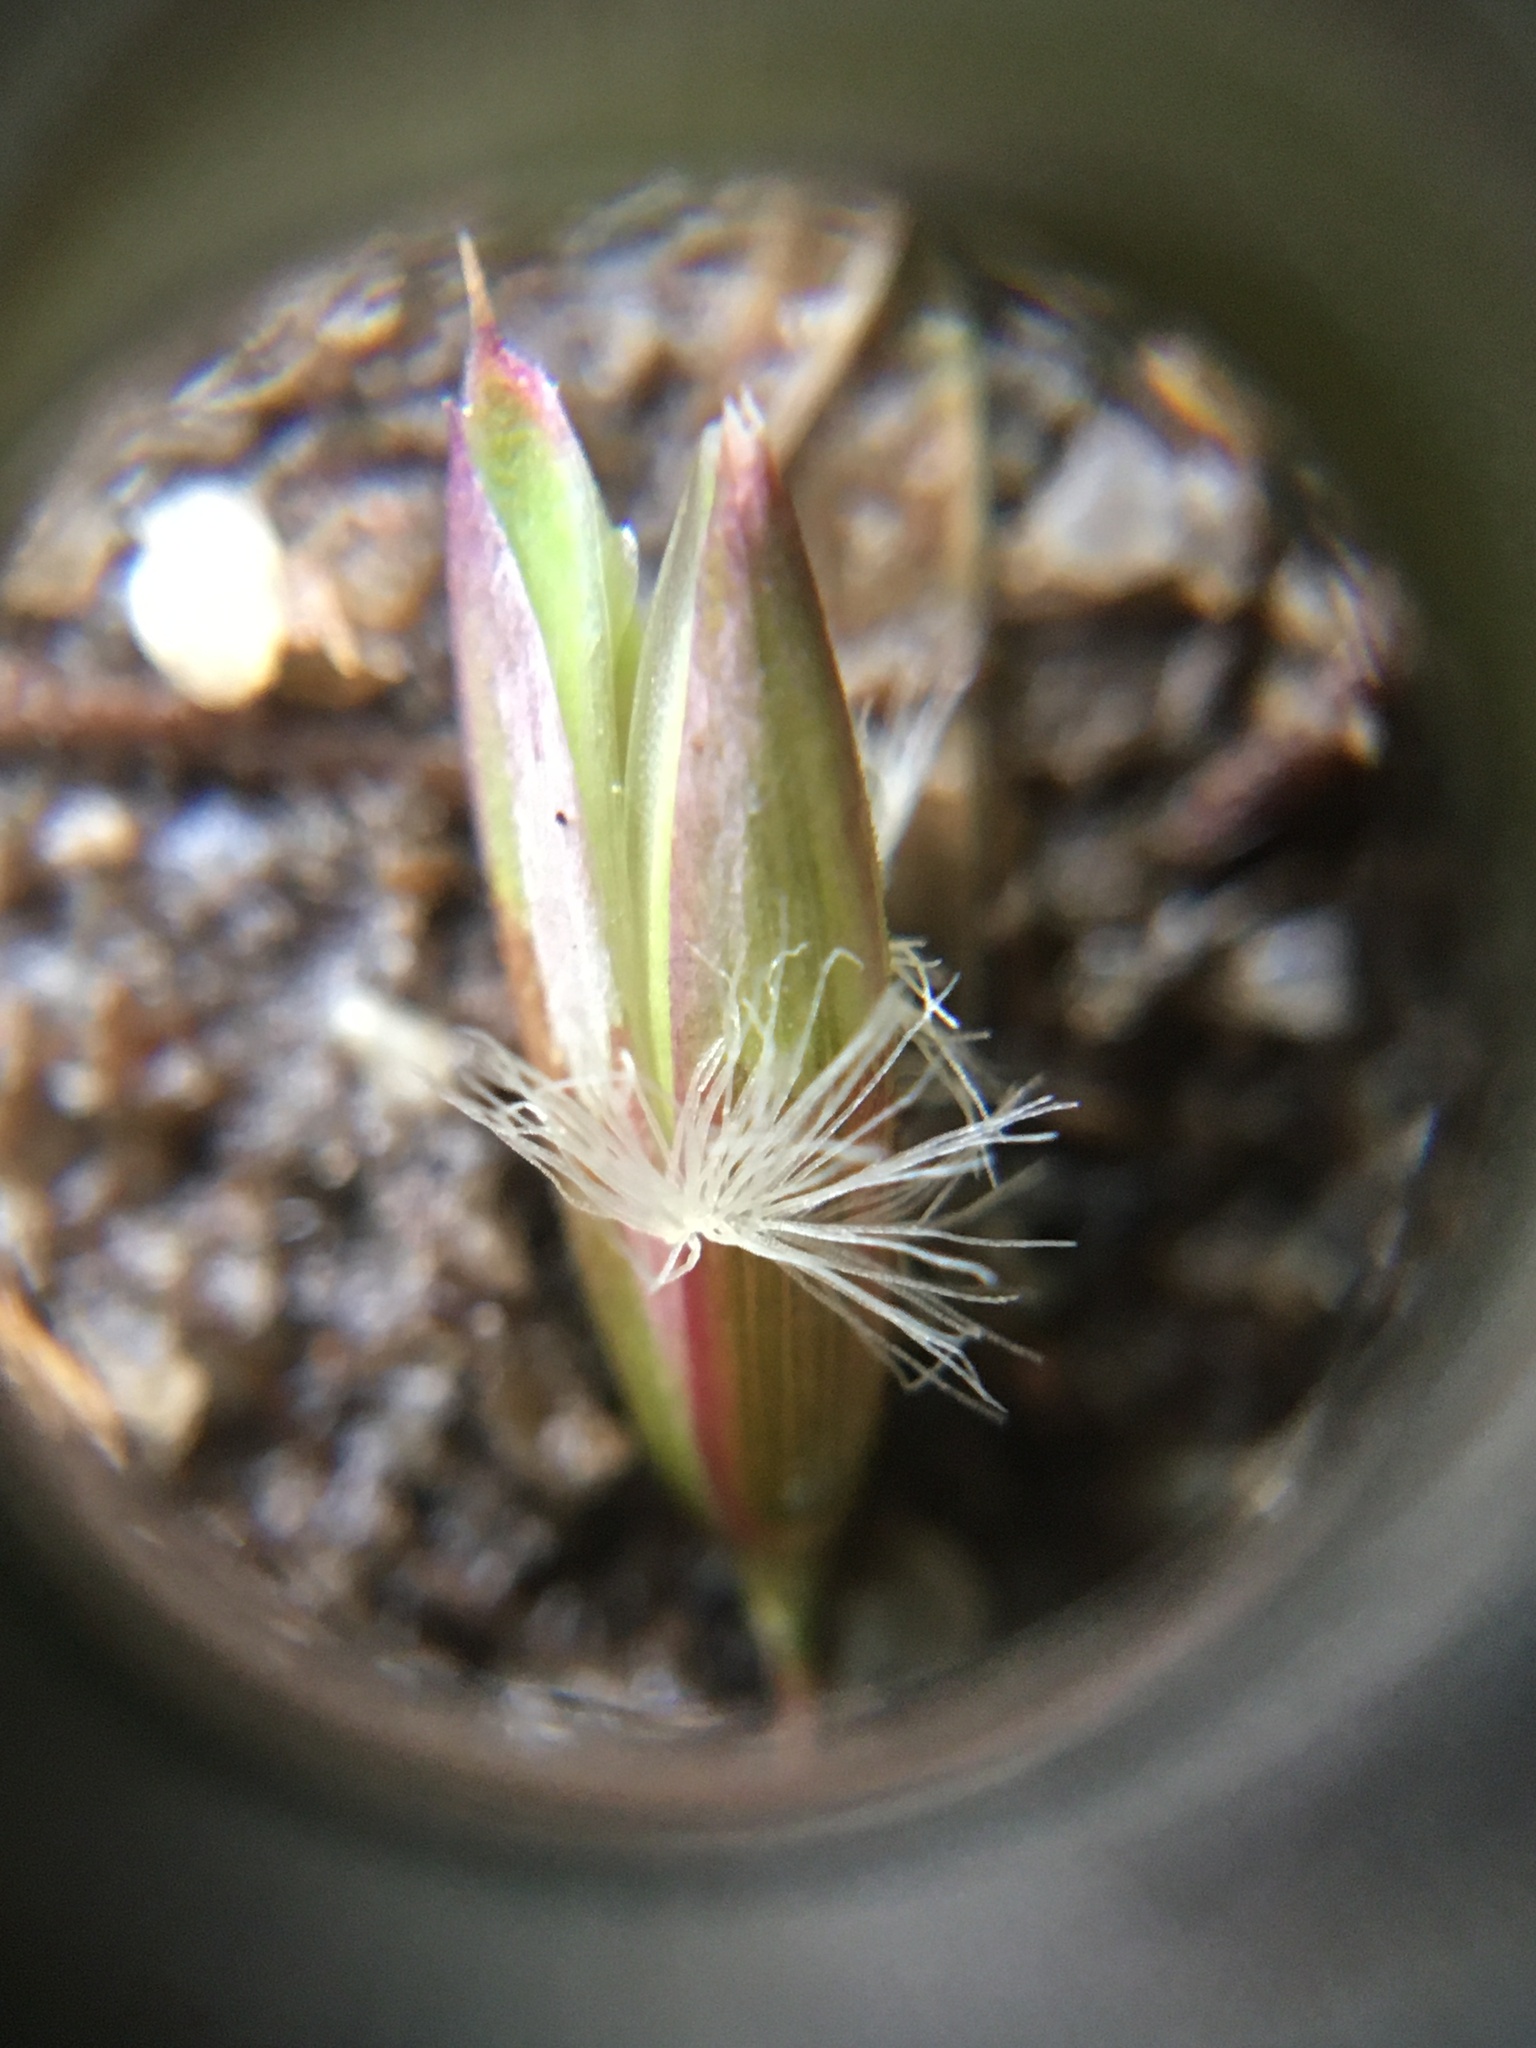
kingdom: Plantae
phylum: Tracheophyta
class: Liliopsida
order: Poales
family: Poaceae
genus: Ehrharta
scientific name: Ehrharta calycina
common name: Perennial veldtgrass
